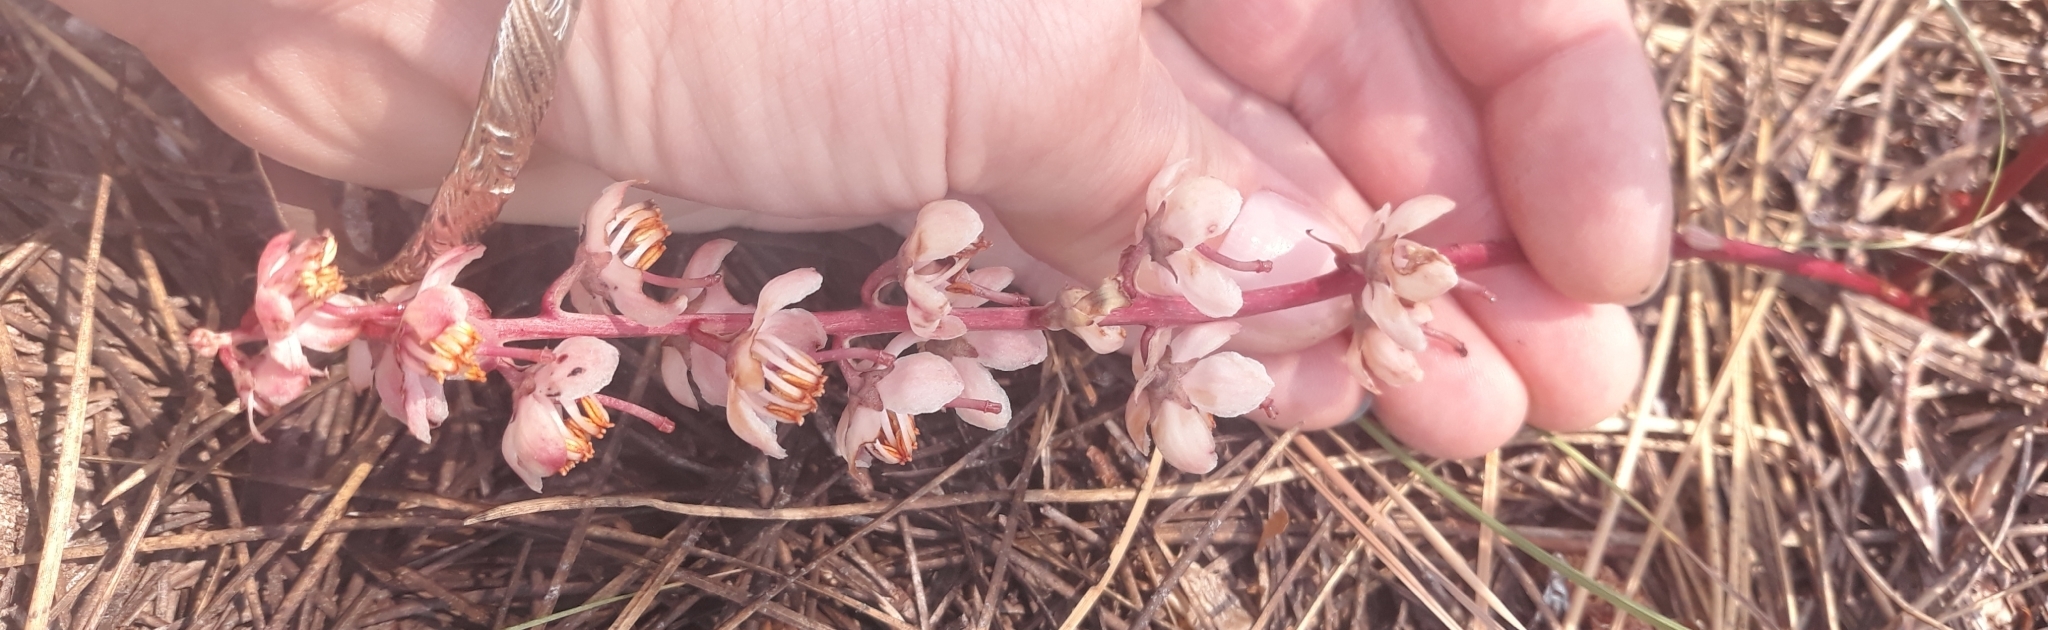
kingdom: Plantae
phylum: Tracheophyta
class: Magnoliopsida
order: Ericales
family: Ericaceae
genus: Pyrola
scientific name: Pyrola aphylla
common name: Leafless wintergreen
